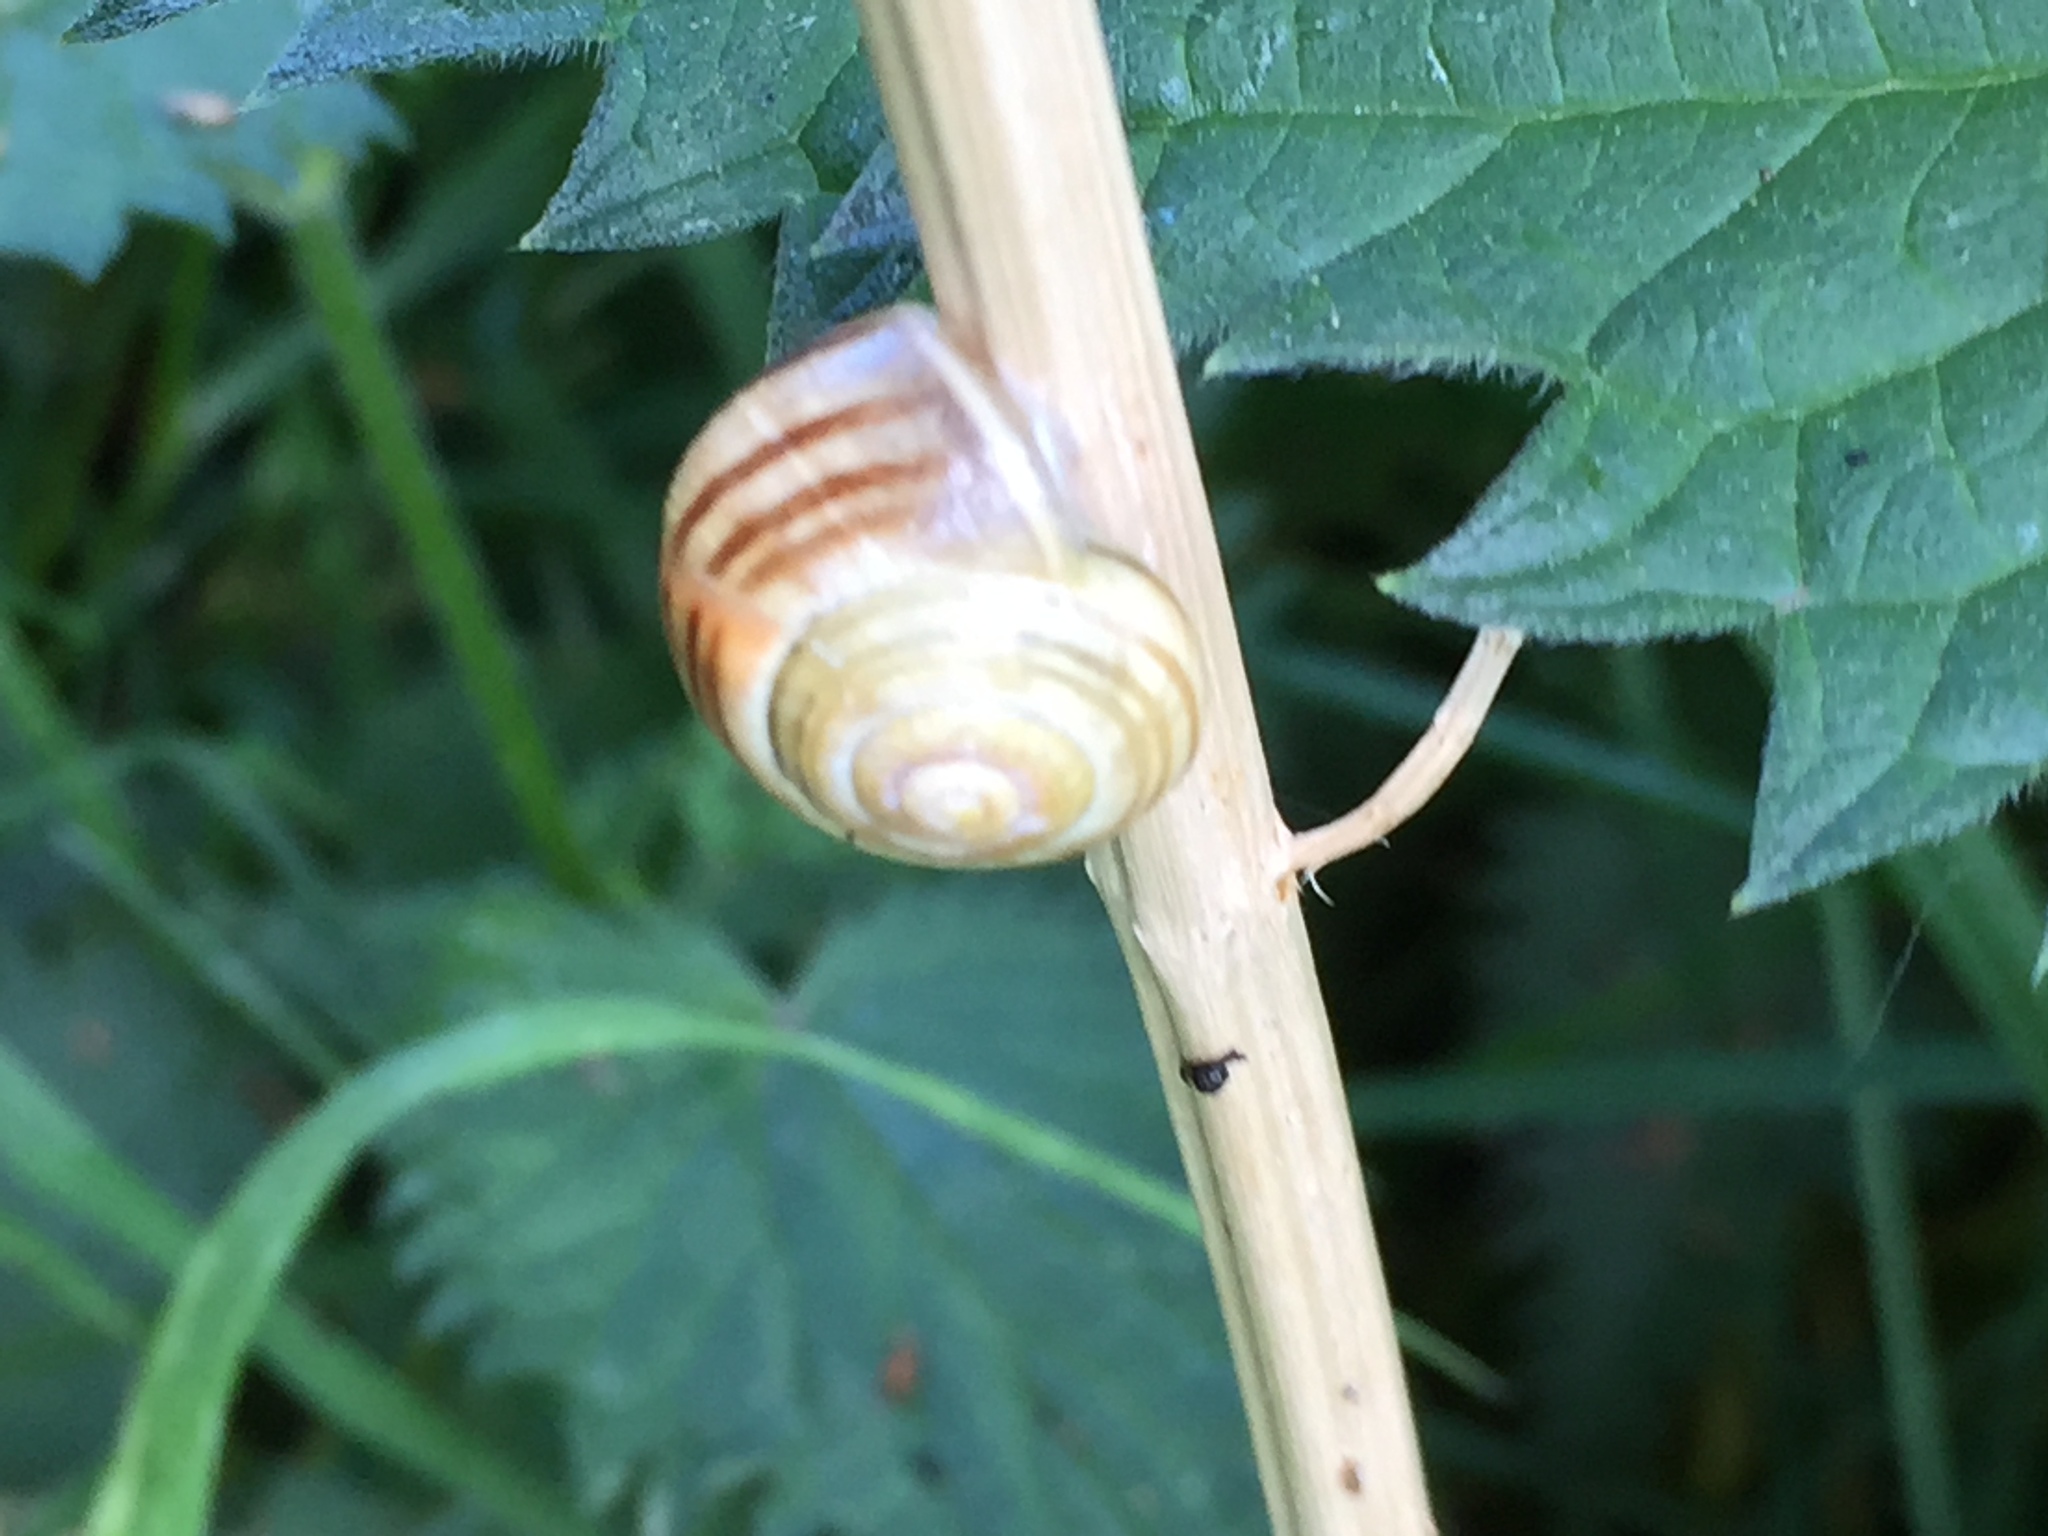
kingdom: Animalia
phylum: Mollusca
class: Gastropoda
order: Stylommatophora
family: Helicidae
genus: Cepaea
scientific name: Cepaea
